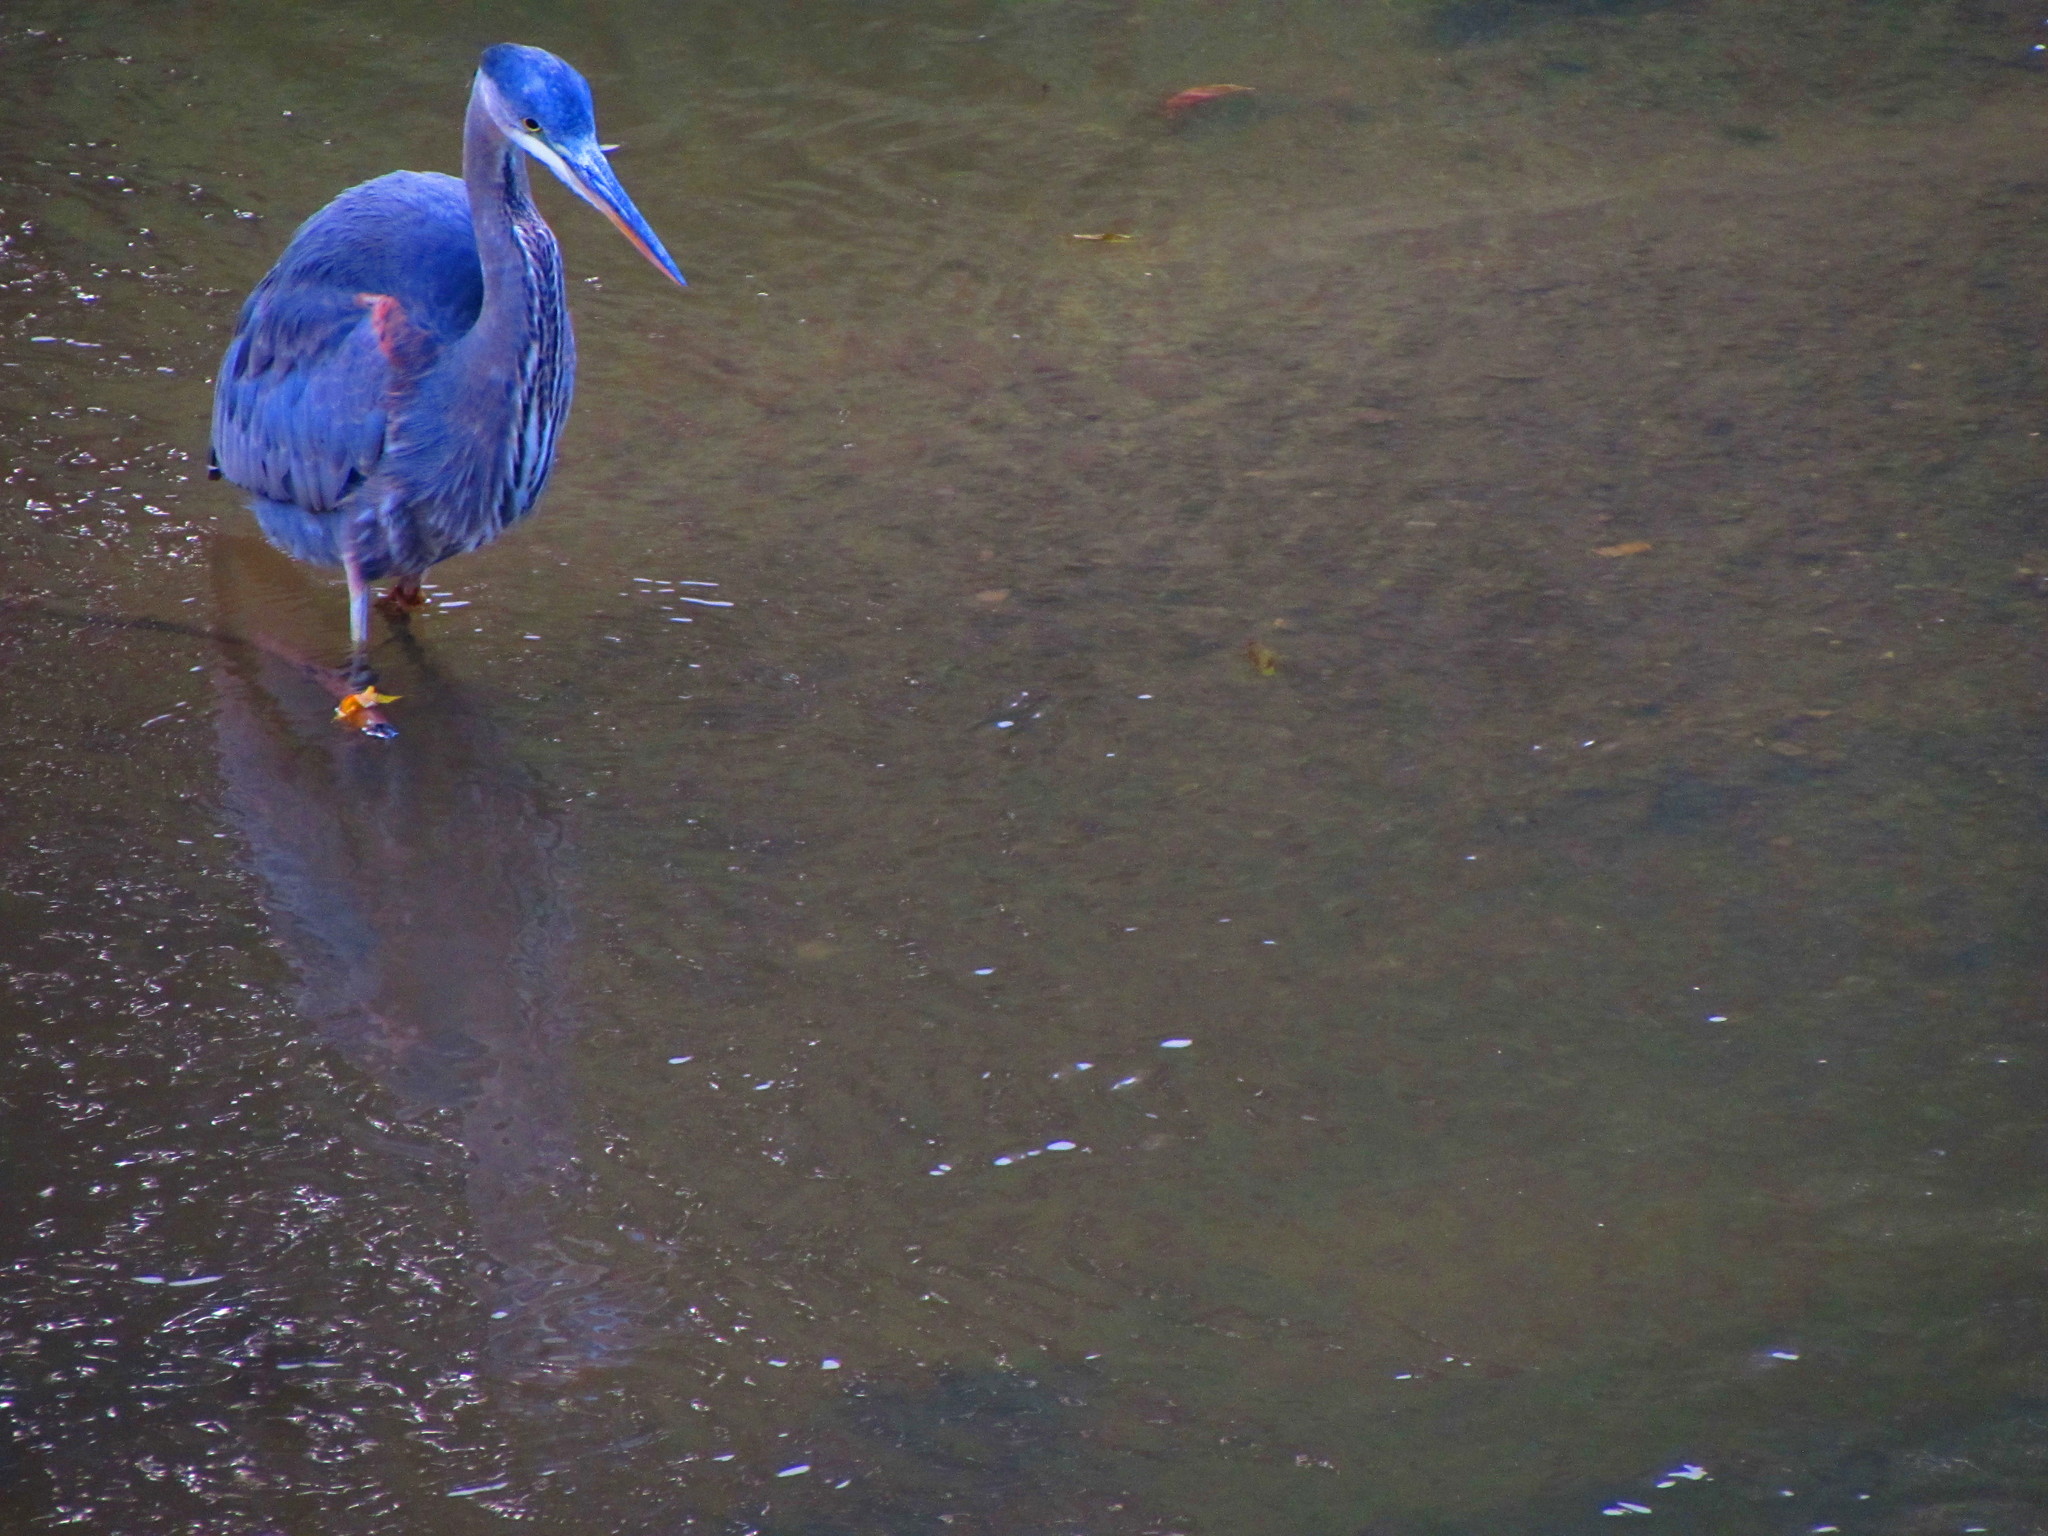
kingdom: Animalia
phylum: Chordata
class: Aves
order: Pelecaniformes
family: Ardeidae
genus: Ardea
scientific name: Ardea herodias
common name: Great blue heron
